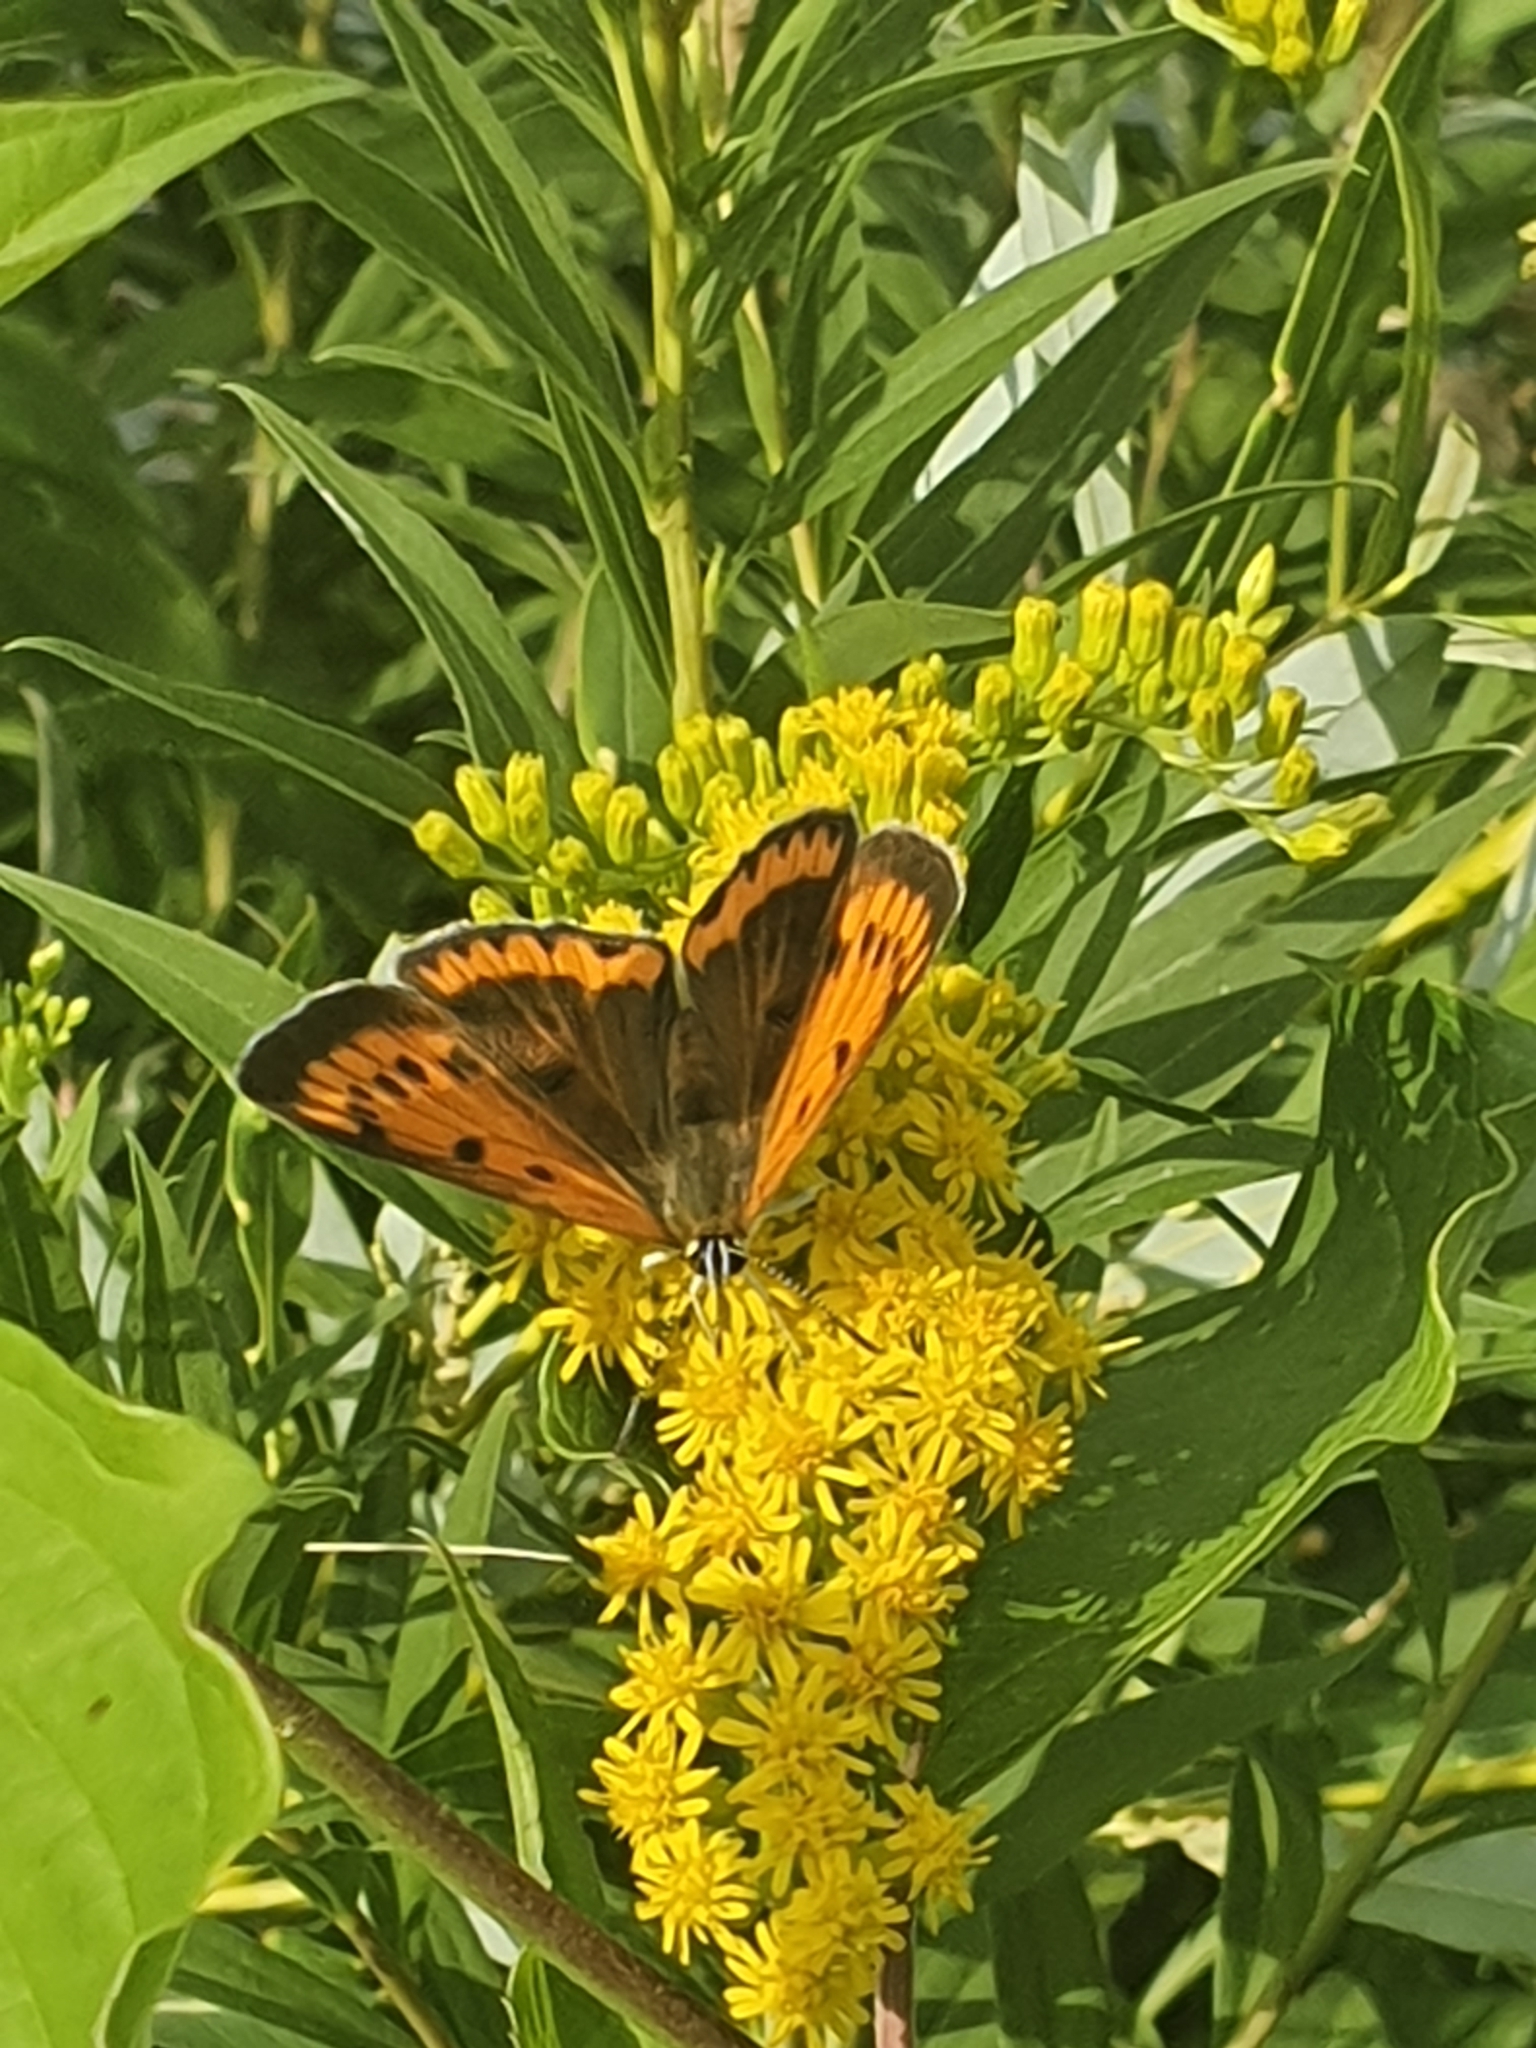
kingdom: Animalia
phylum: Arthropoda
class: Insecta
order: Lepidoptera
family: Lycaenidae
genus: Lycaena
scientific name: Lycaena dispar
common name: Large copper
